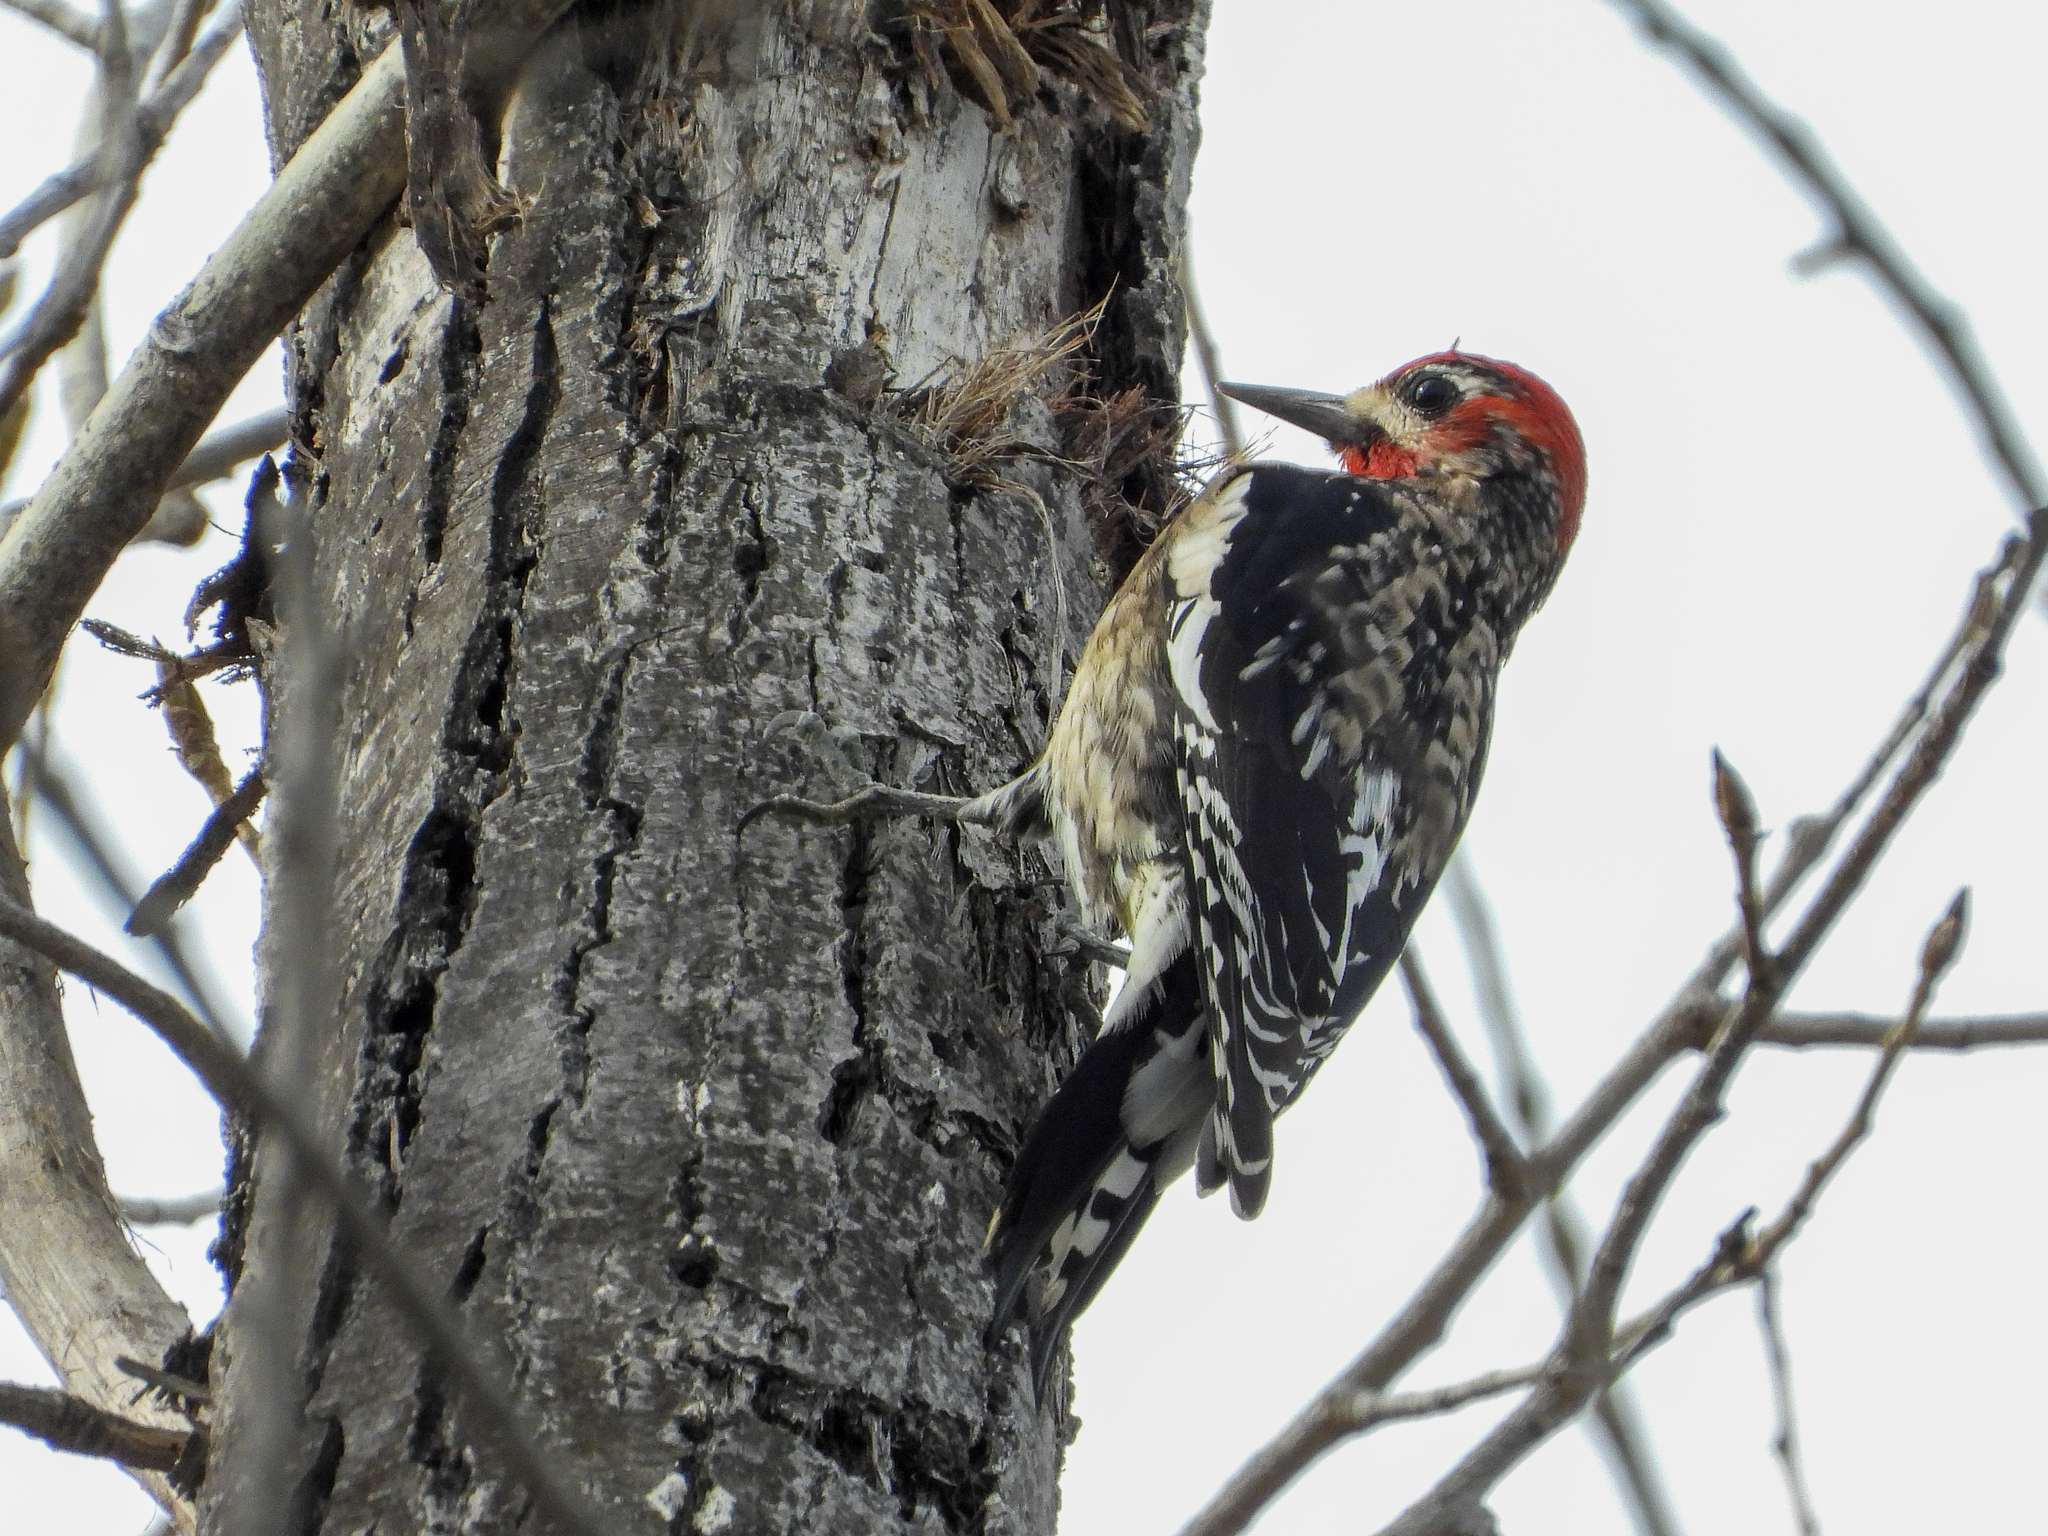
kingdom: Animalia
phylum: Chordata
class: Aves
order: Piciformes
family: Picidae
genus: Sphyrapicus
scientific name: Sphyrapicus ruber
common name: Red-breasted sapsucker
